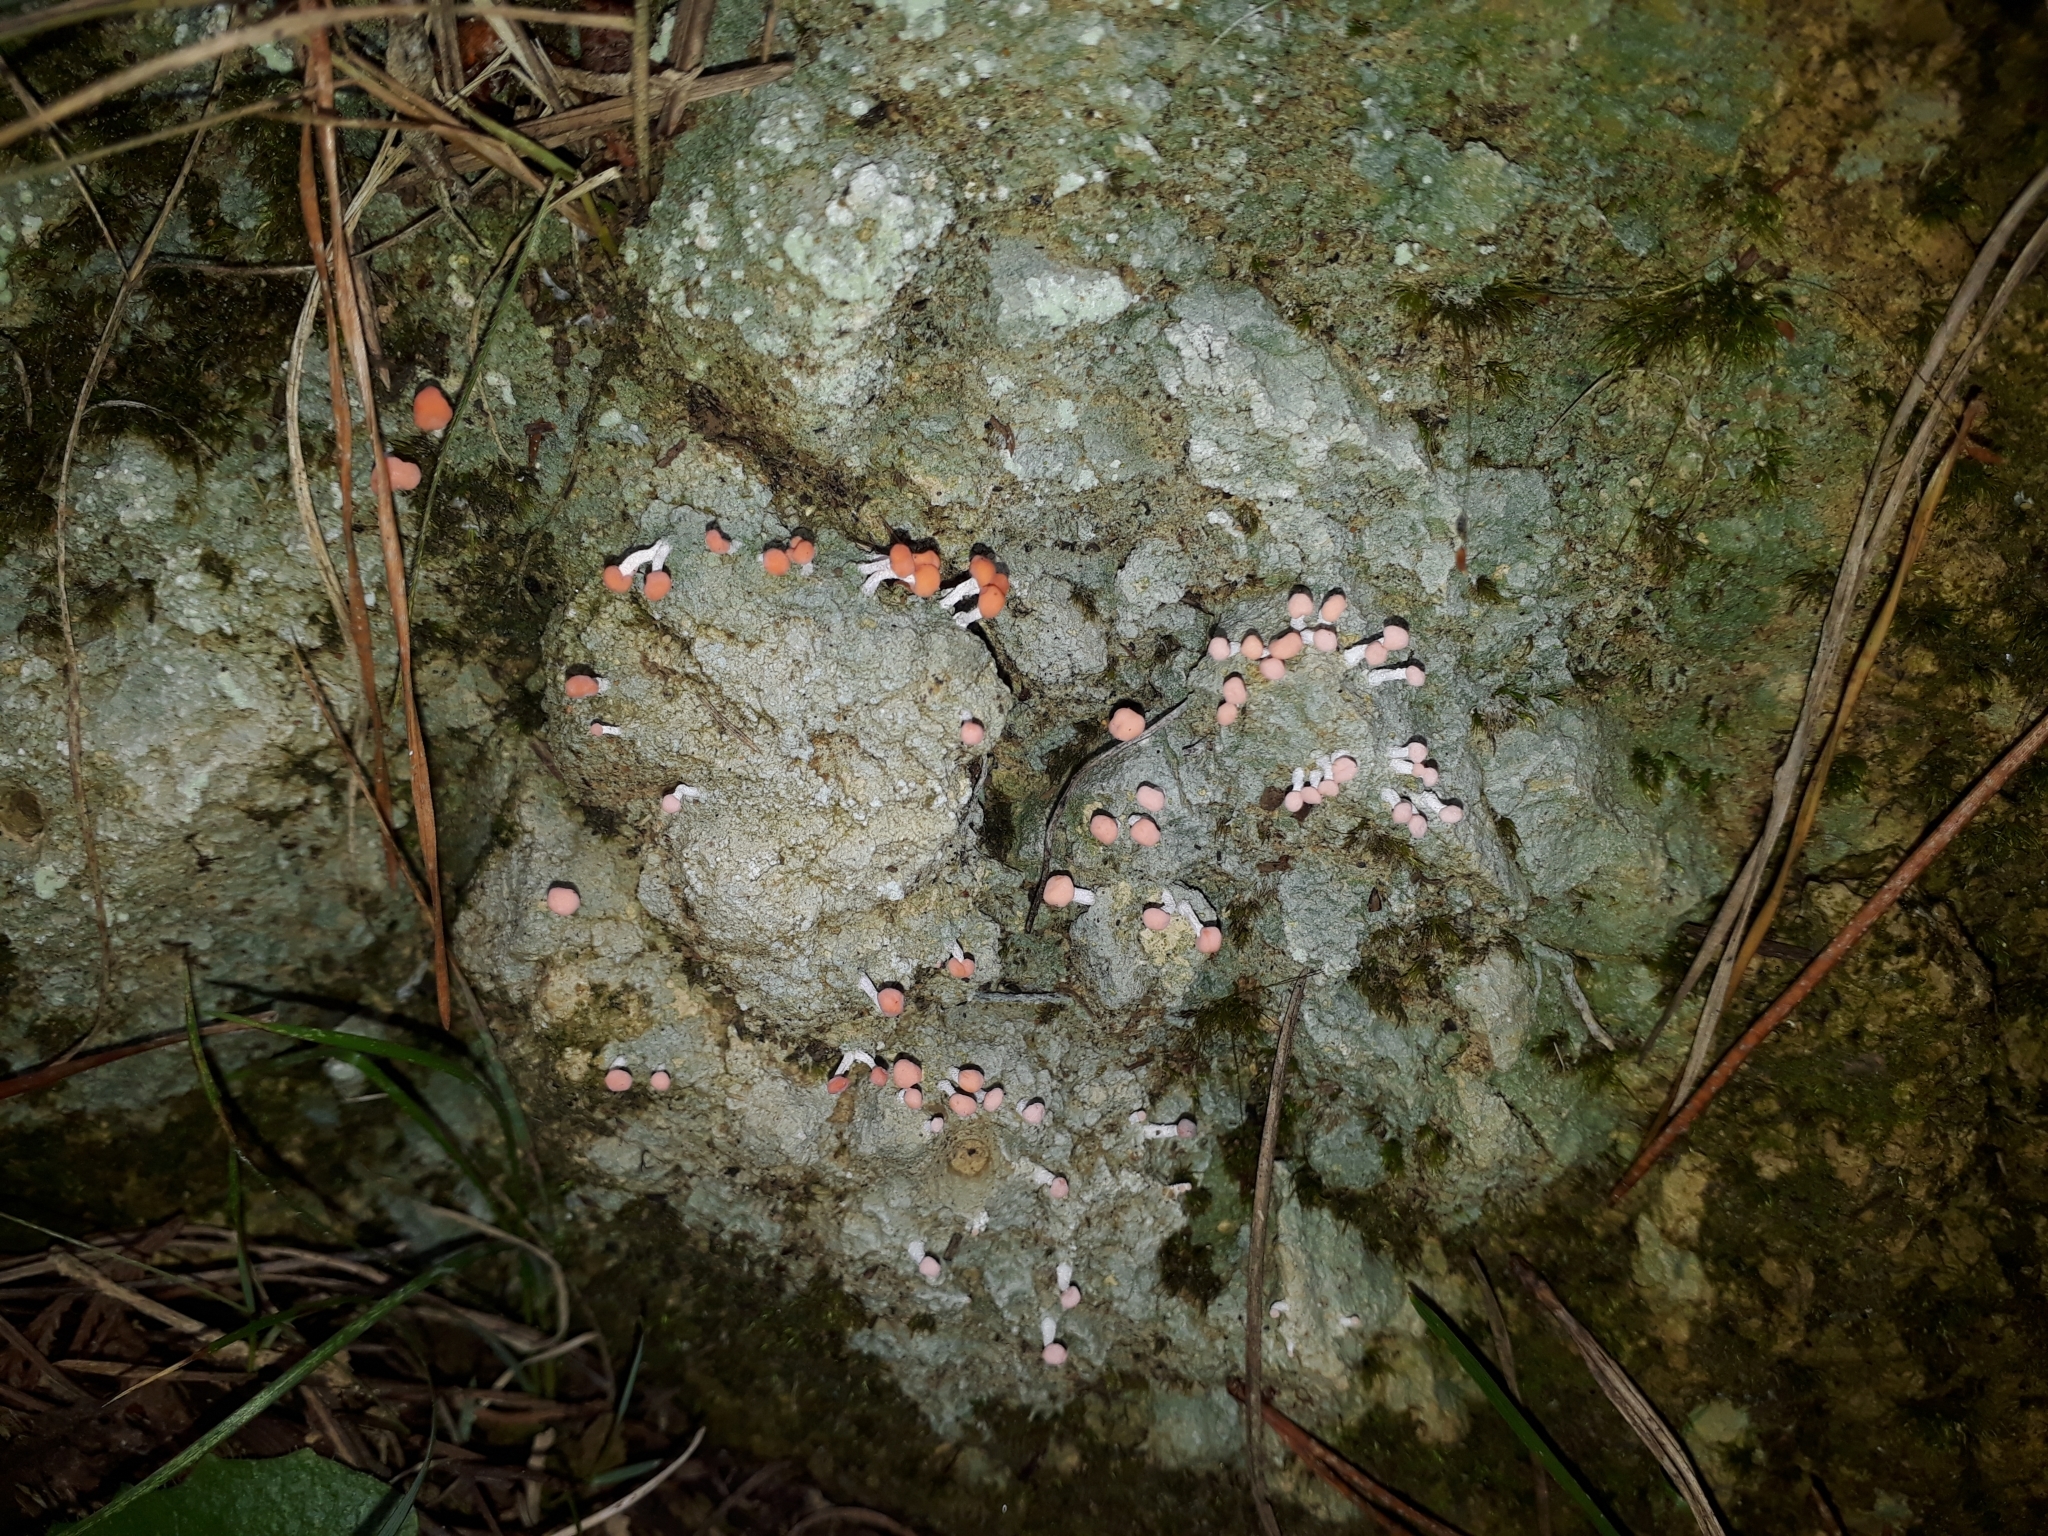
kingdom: Fungi
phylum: Ascomycota
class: Lecanoromycetes
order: Pertusariales
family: Icmadophilaceae
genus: Dibaeis
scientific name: Dibaeis arcuata
